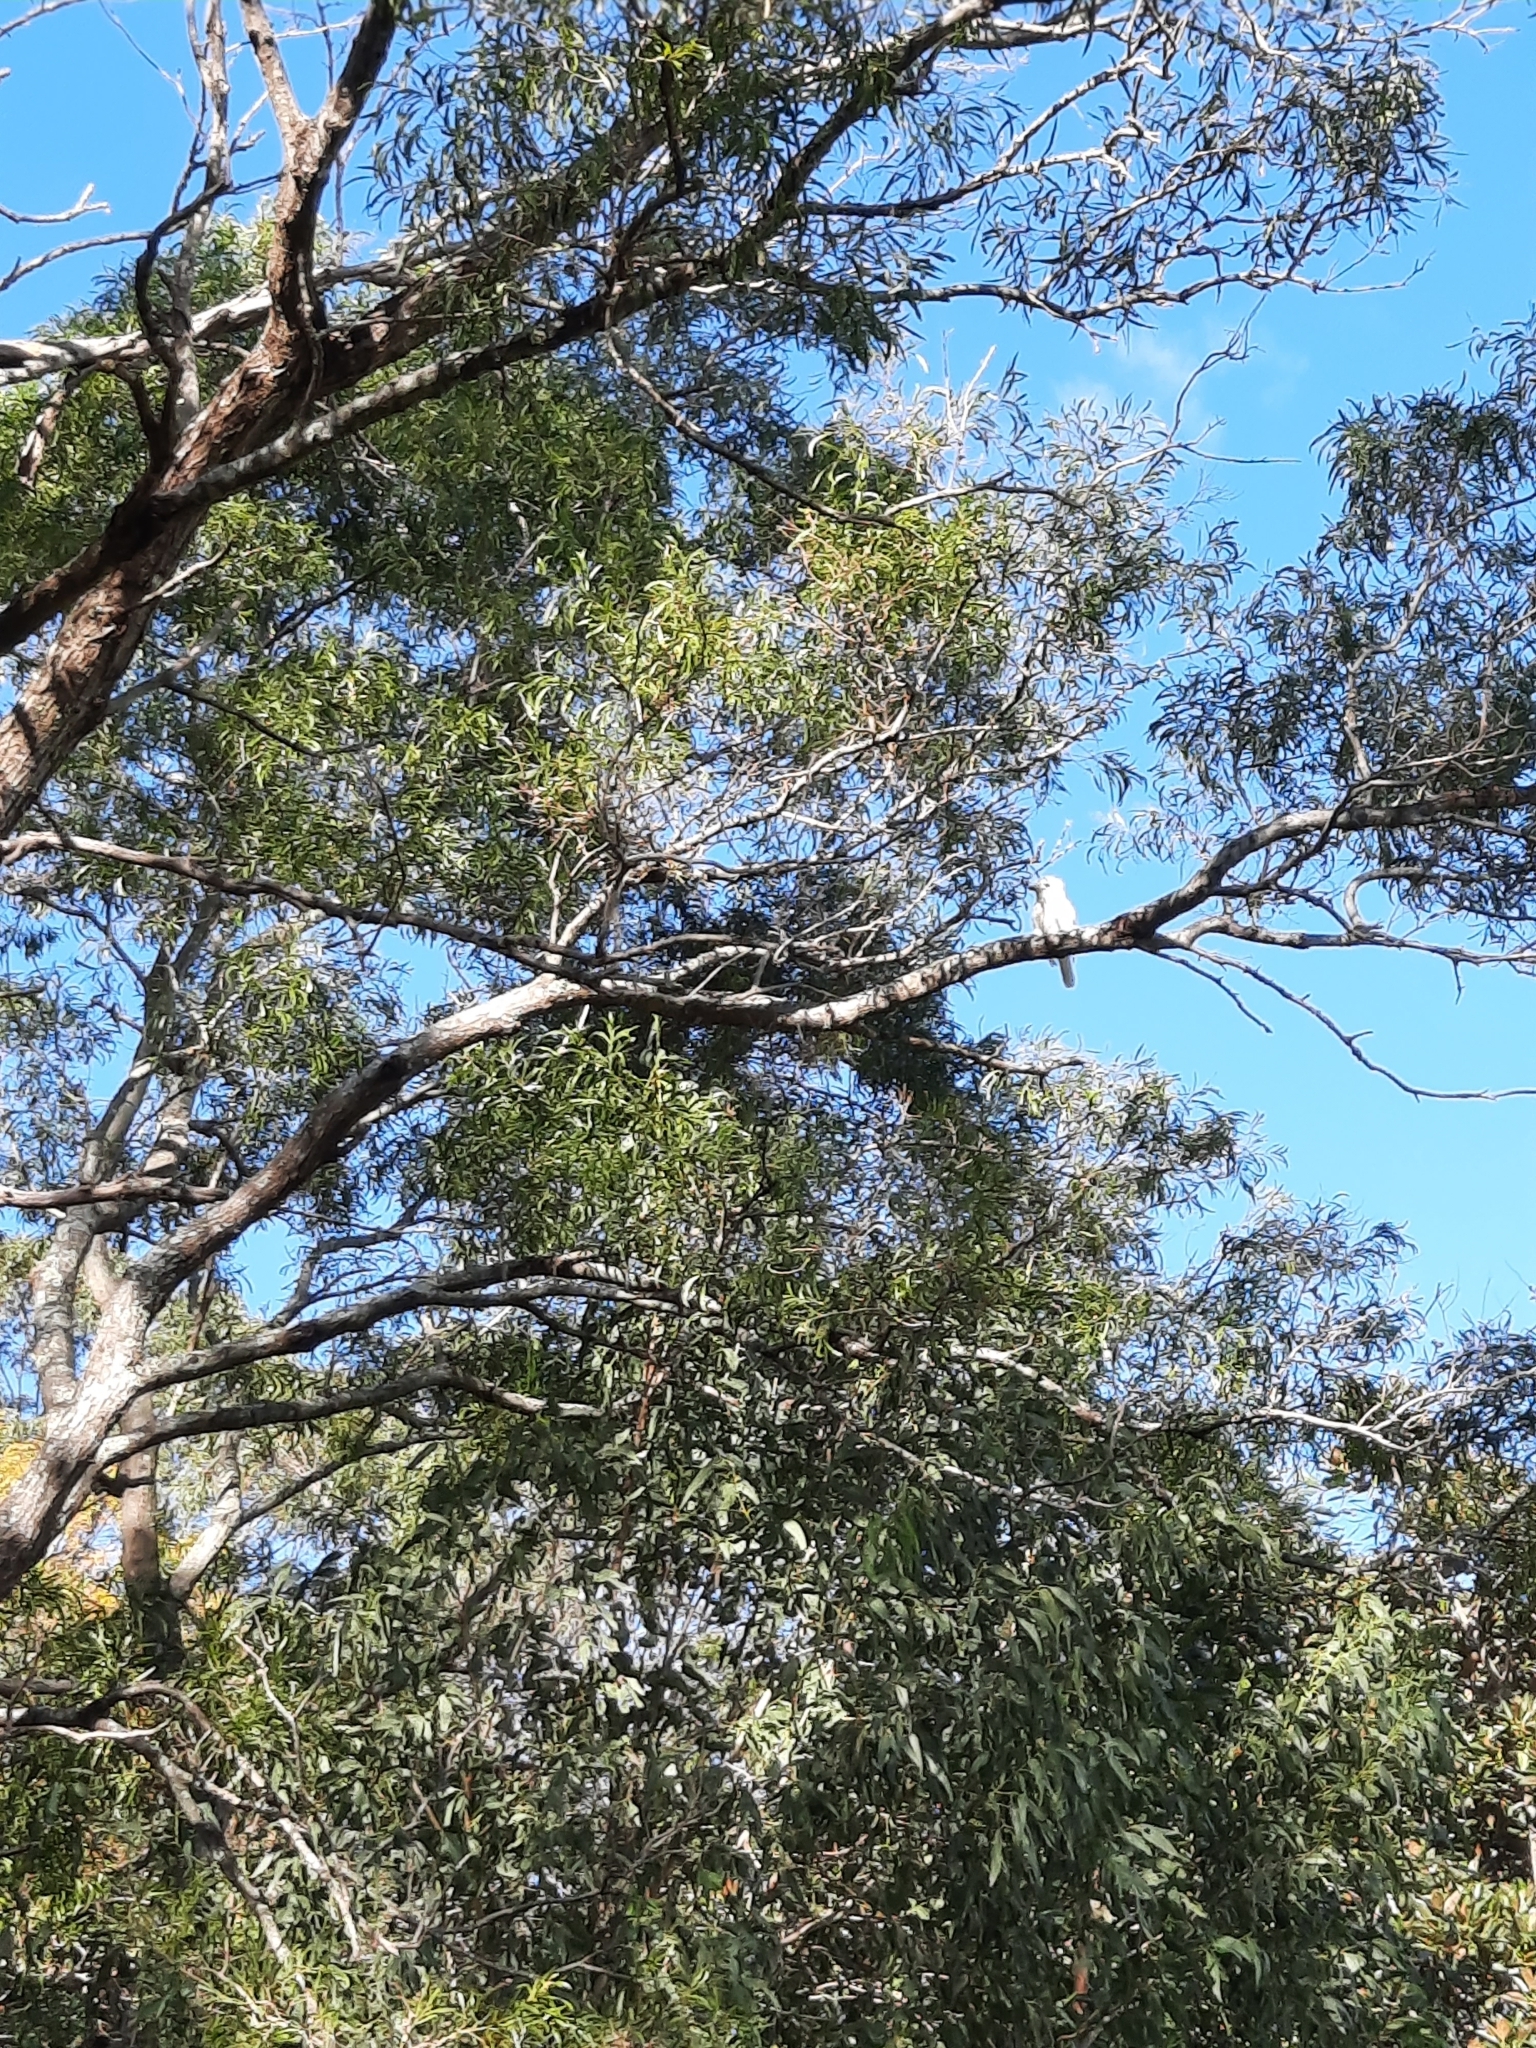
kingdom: Animalia
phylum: Chordata
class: Aves
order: Coraciiformes
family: Alcedinidae
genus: Dacelo
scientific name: Dacelo novaeguineae
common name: Laughing kookaburra
